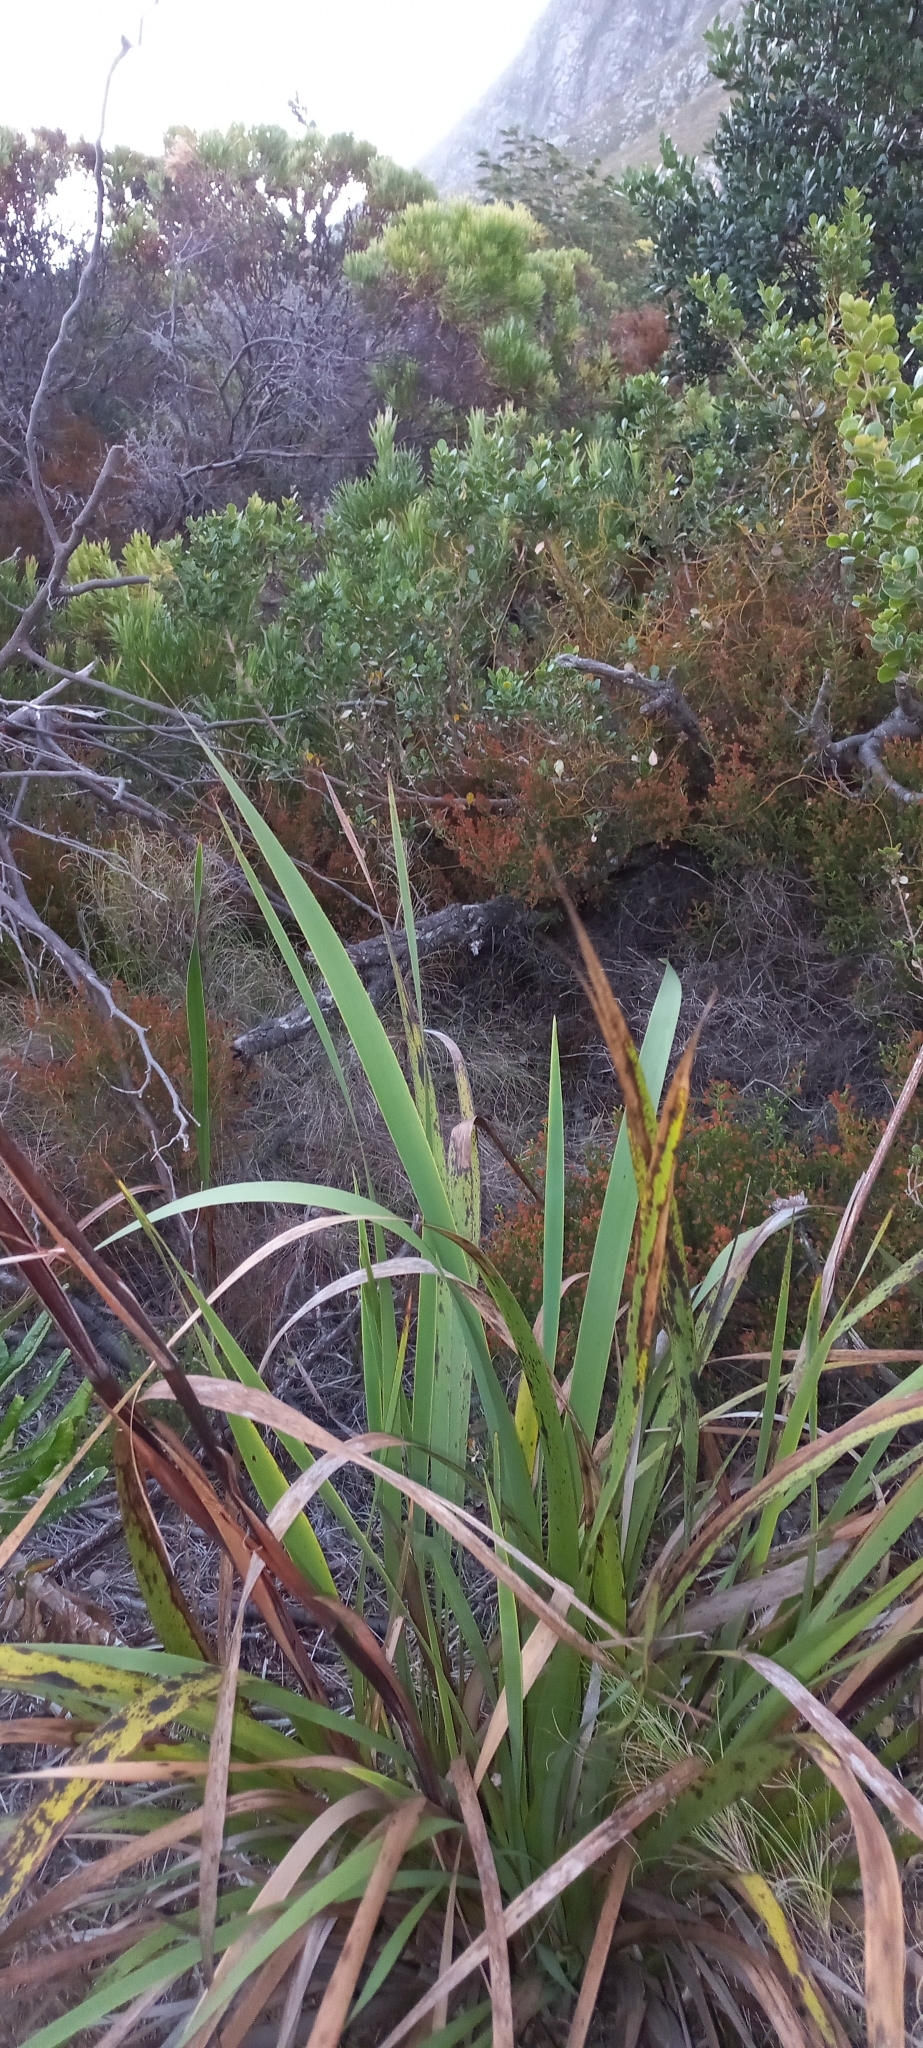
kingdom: Plantae
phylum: Tracheophyta
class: Liliopsida
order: Asparagales
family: Iridaceae
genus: Aristea
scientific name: Aristea capitata
